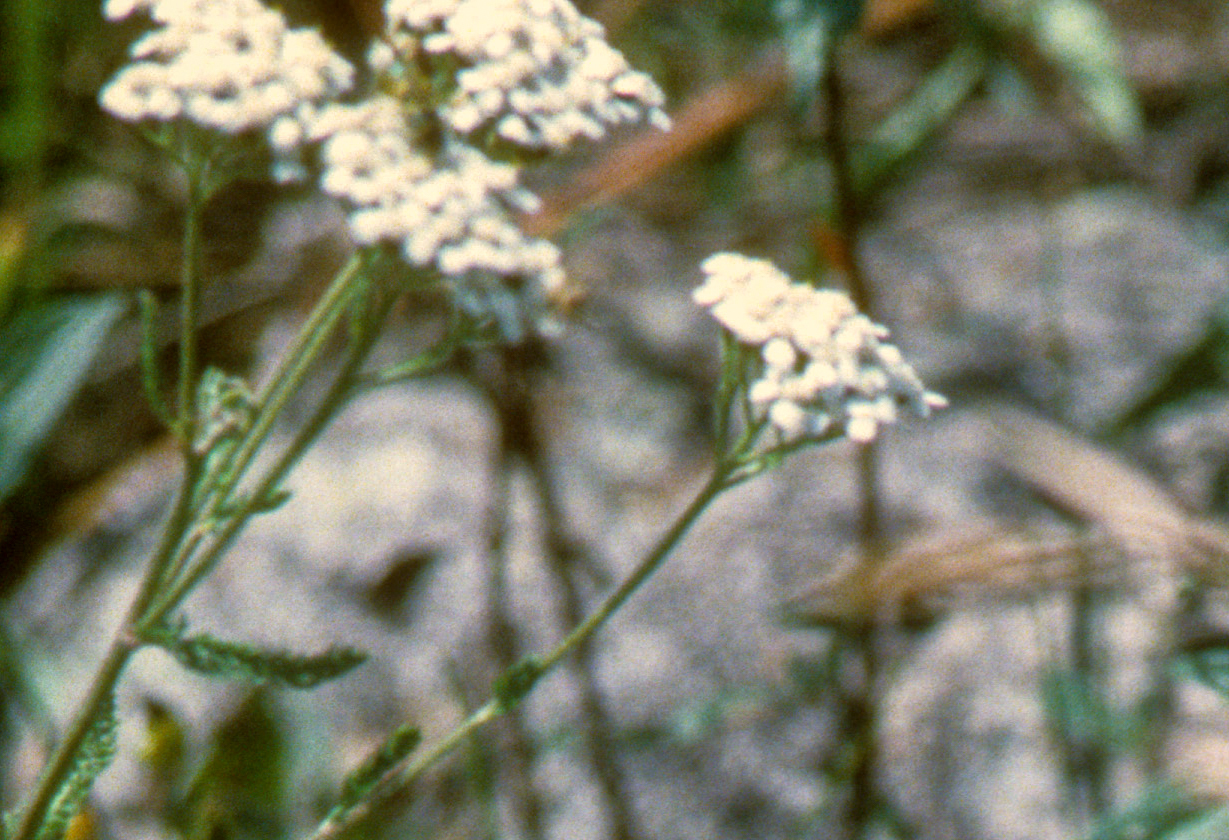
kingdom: Plantae
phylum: Tracheophyta
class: Magnoliopsida
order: Asterales
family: Asteraceae
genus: Achillea
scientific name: Achillea millefolium
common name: Yarrow
